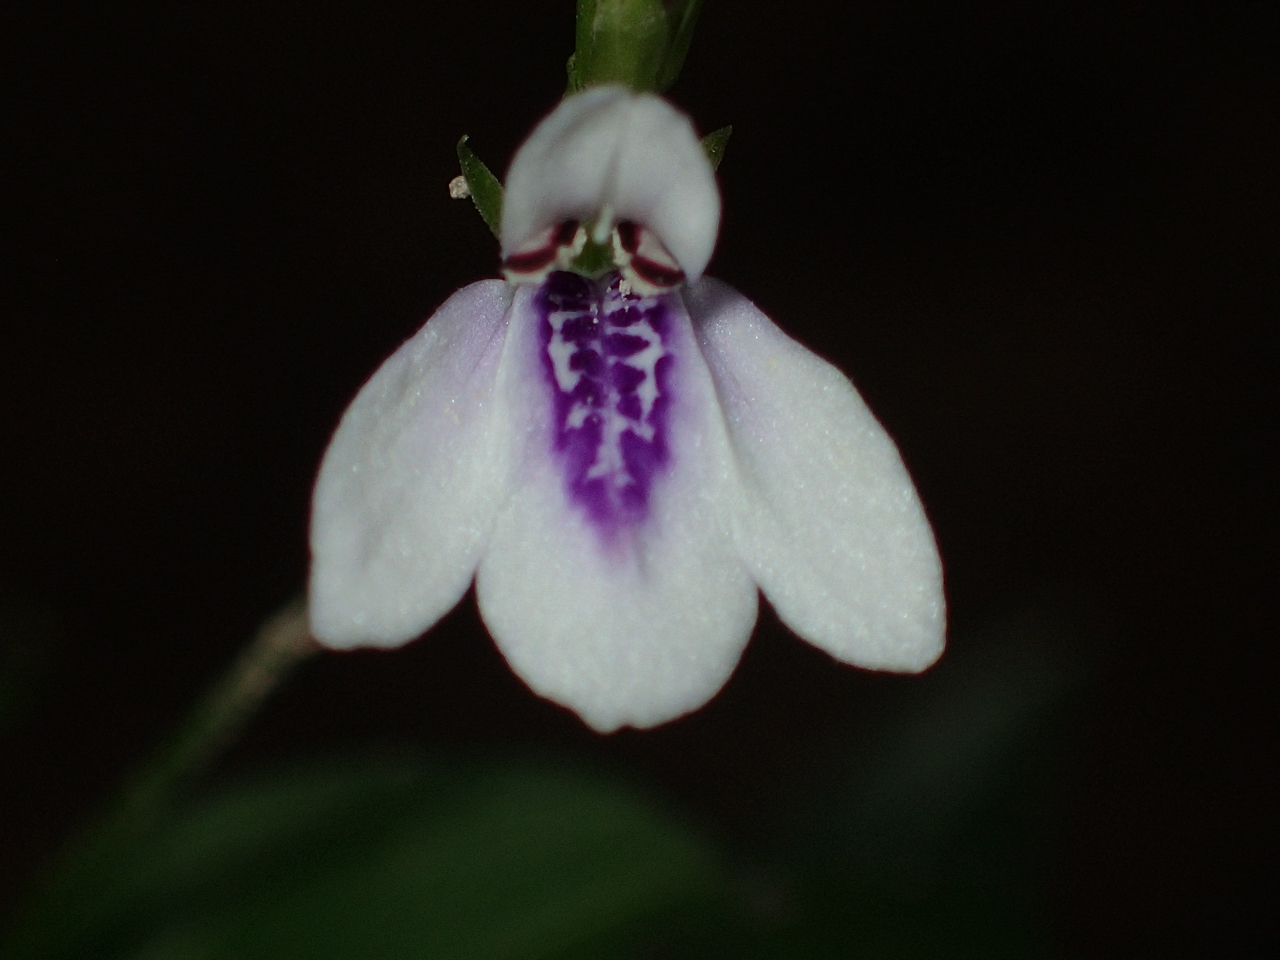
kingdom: Plantae
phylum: Tracheophyta
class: Magnoliopsida
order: Lamiales
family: Acanthaceae
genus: Justicia
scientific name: Justicia lanceolata
